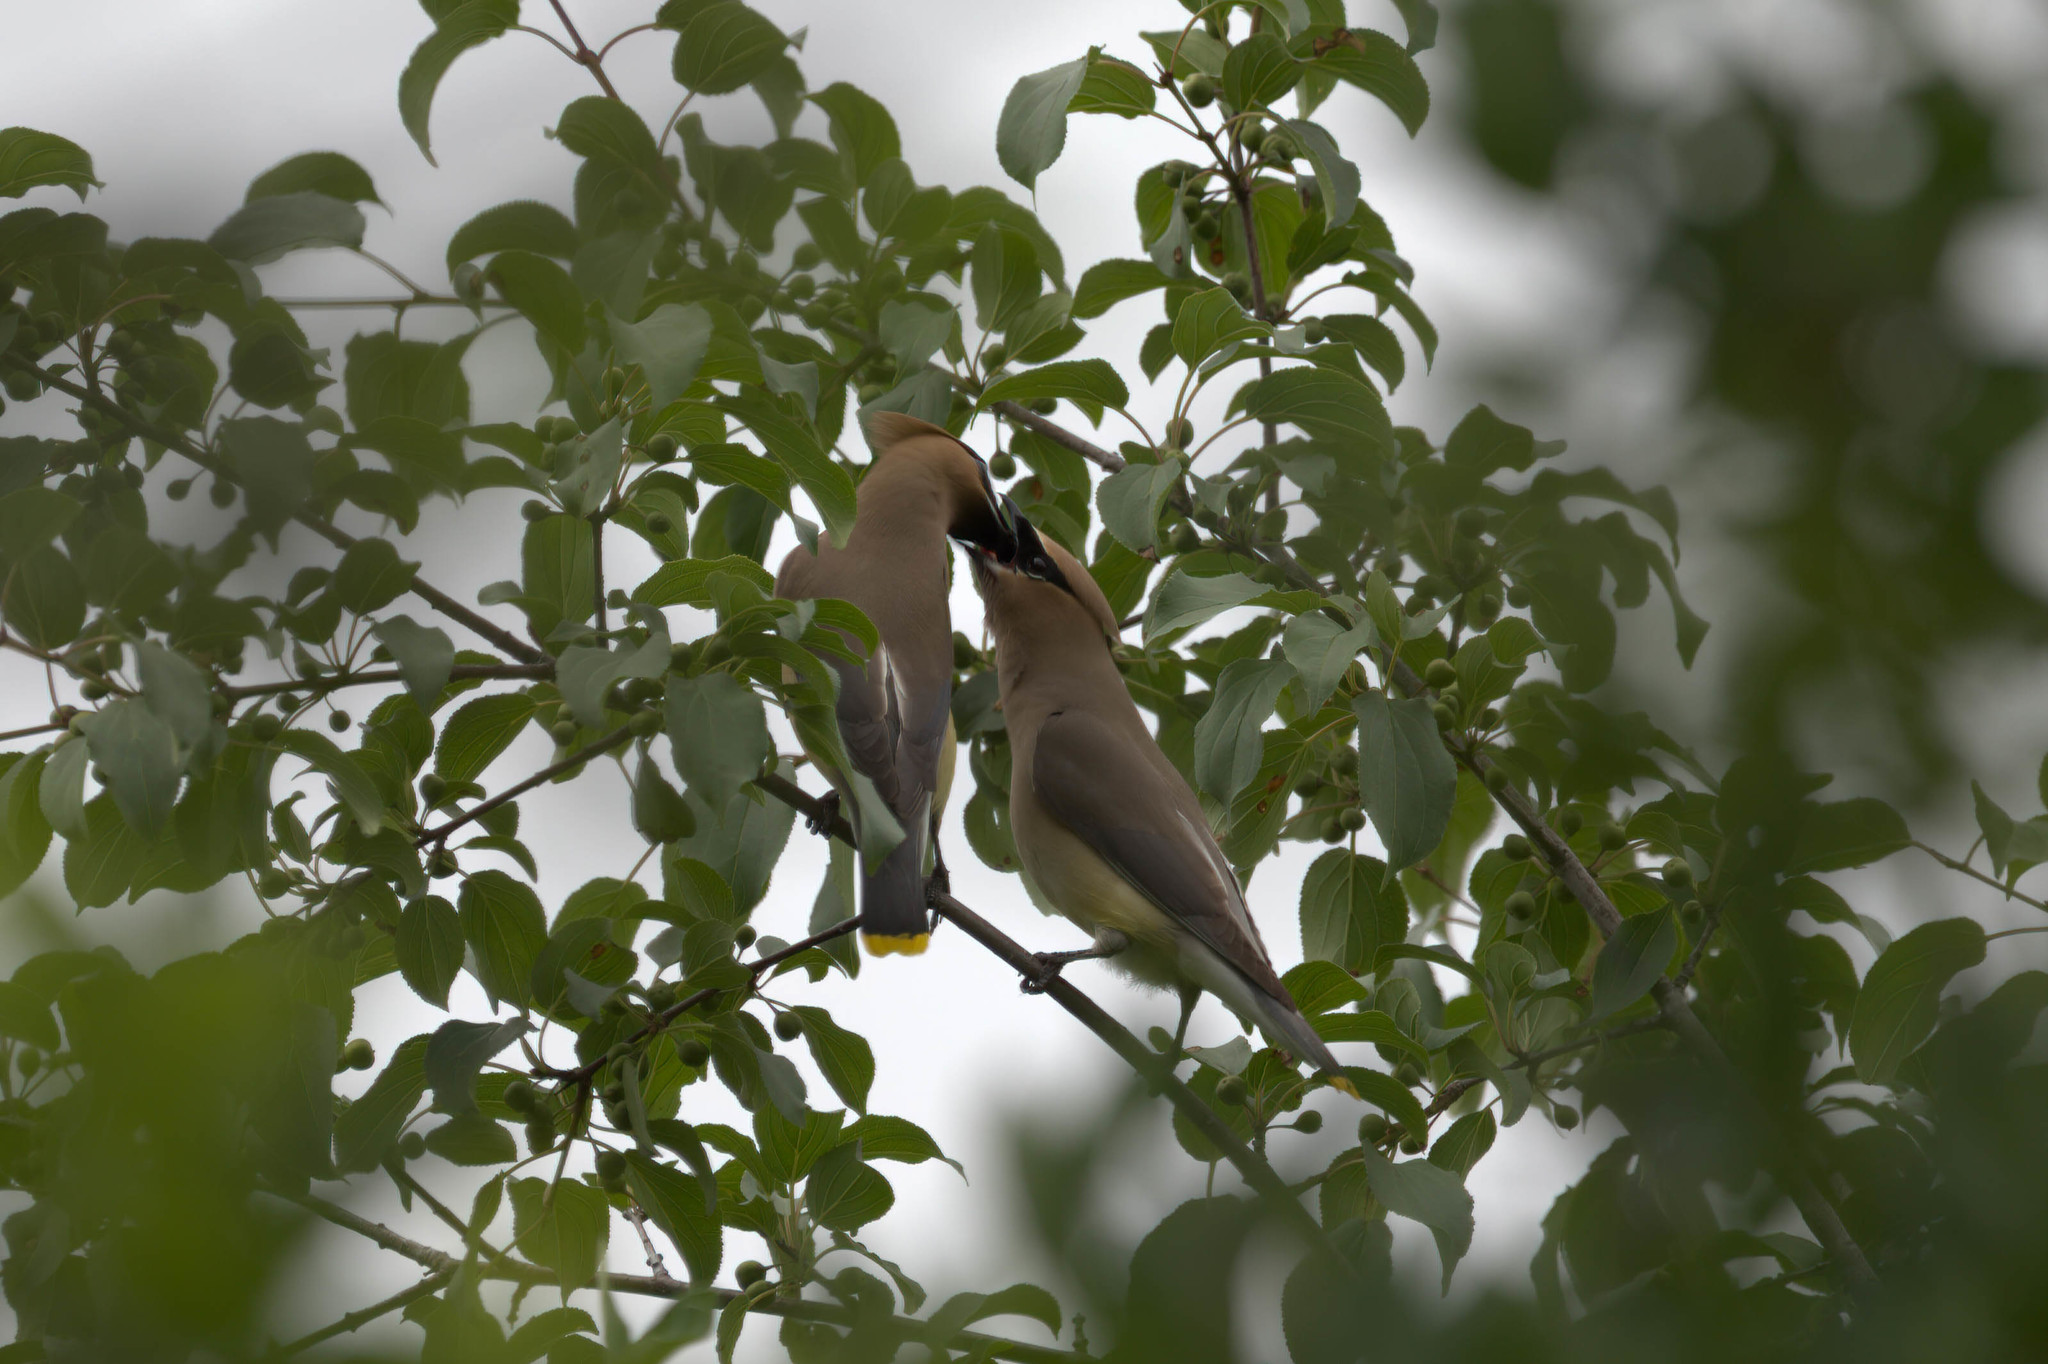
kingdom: Animalia
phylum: Chordata
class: Aves
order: Passeriformes
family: Bombycillidae
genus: Bombycilla
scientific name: Bombycilla cedrorum
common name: Cedar waxwing
